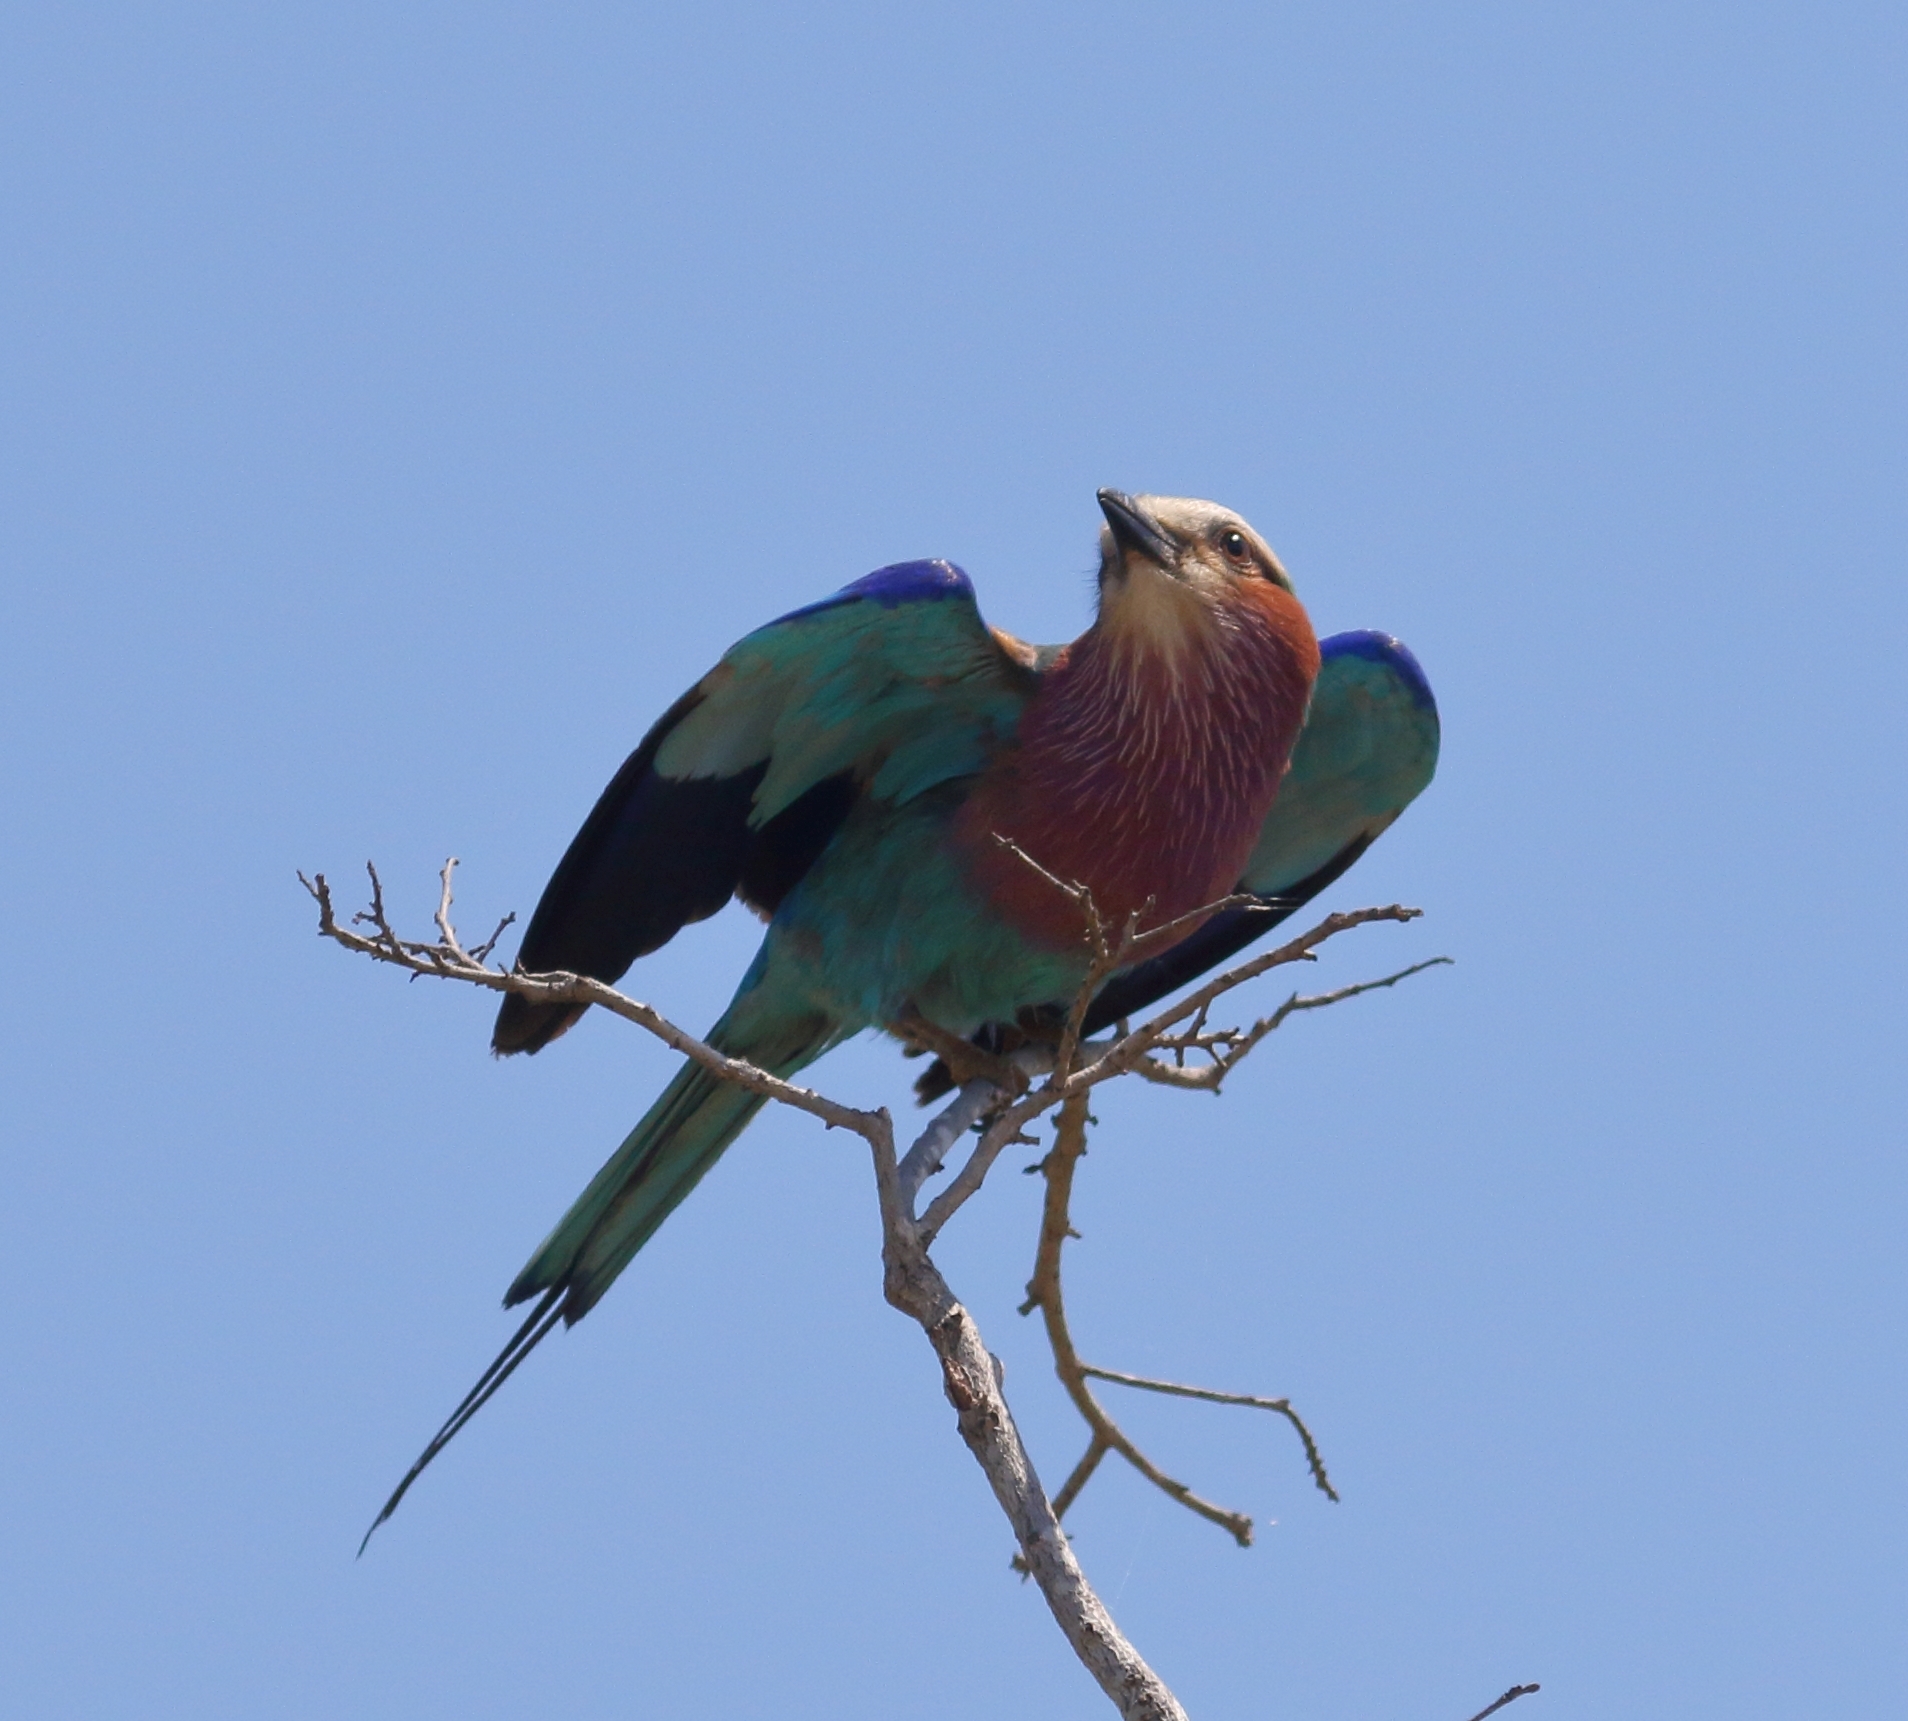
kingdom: Animalia
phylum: Chordata
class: Aves
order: Coraciiformes
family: Coraciidae
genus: Coracias
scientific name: Coracias caudatus
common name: Lilac-breasted roller
